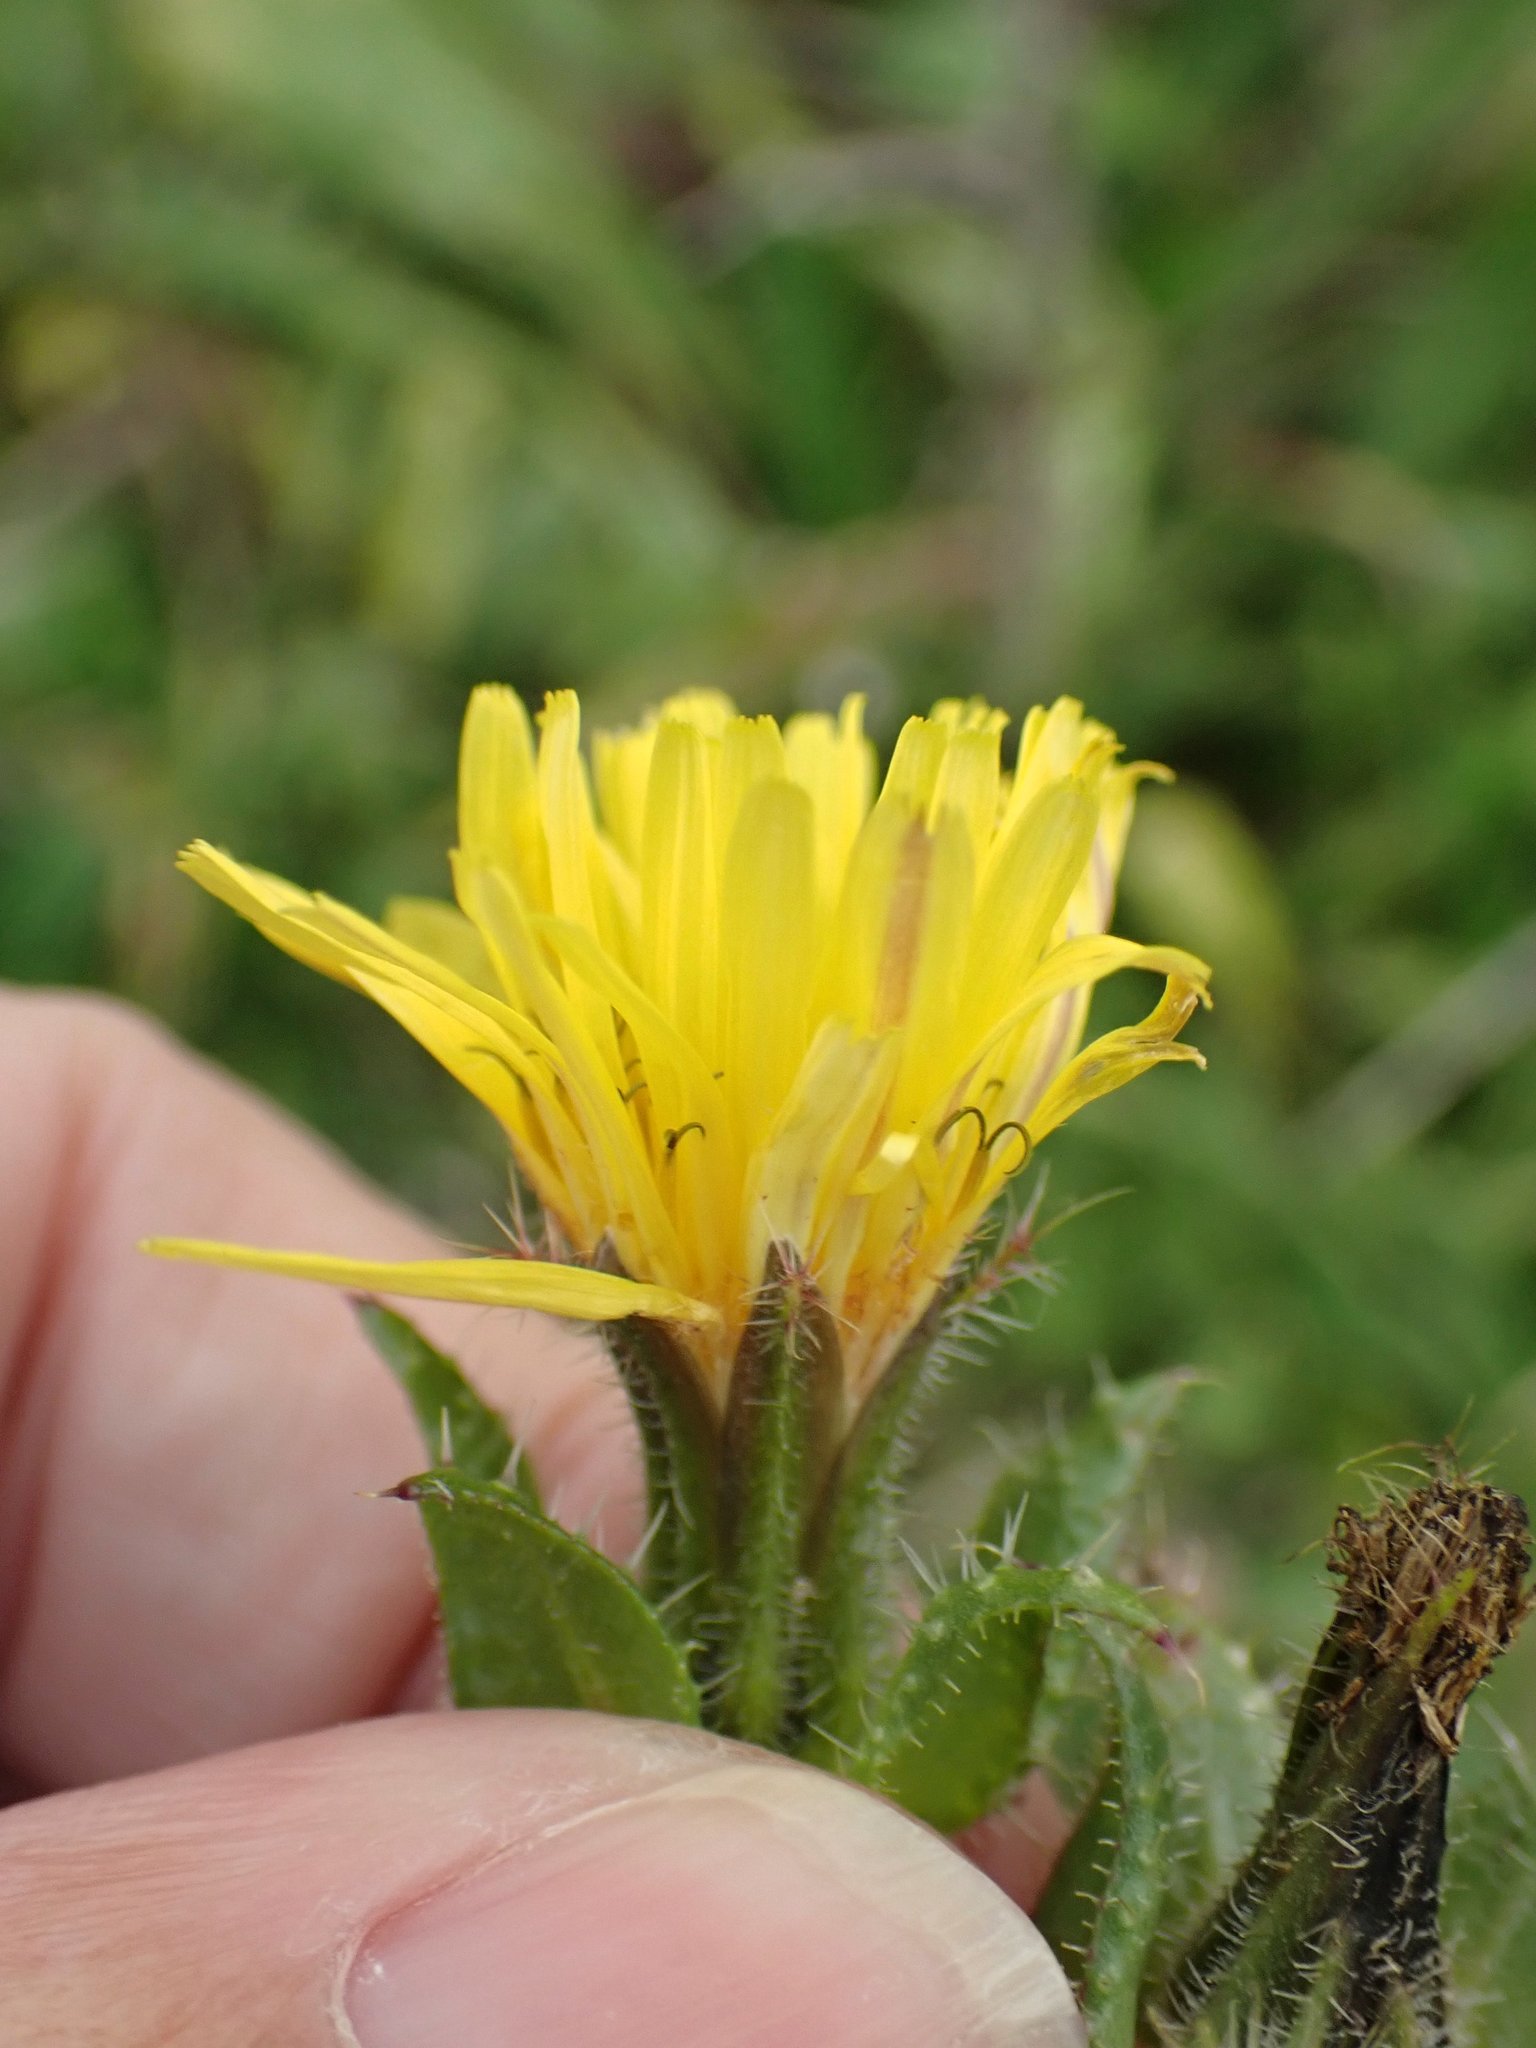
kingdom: Plantae
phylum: Tracheophyta
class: Magnoliopsida
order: Asterales
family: Asteraceae
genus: Helminthotheca
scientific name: Helminthotheca echioides
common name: Ox-tongue
